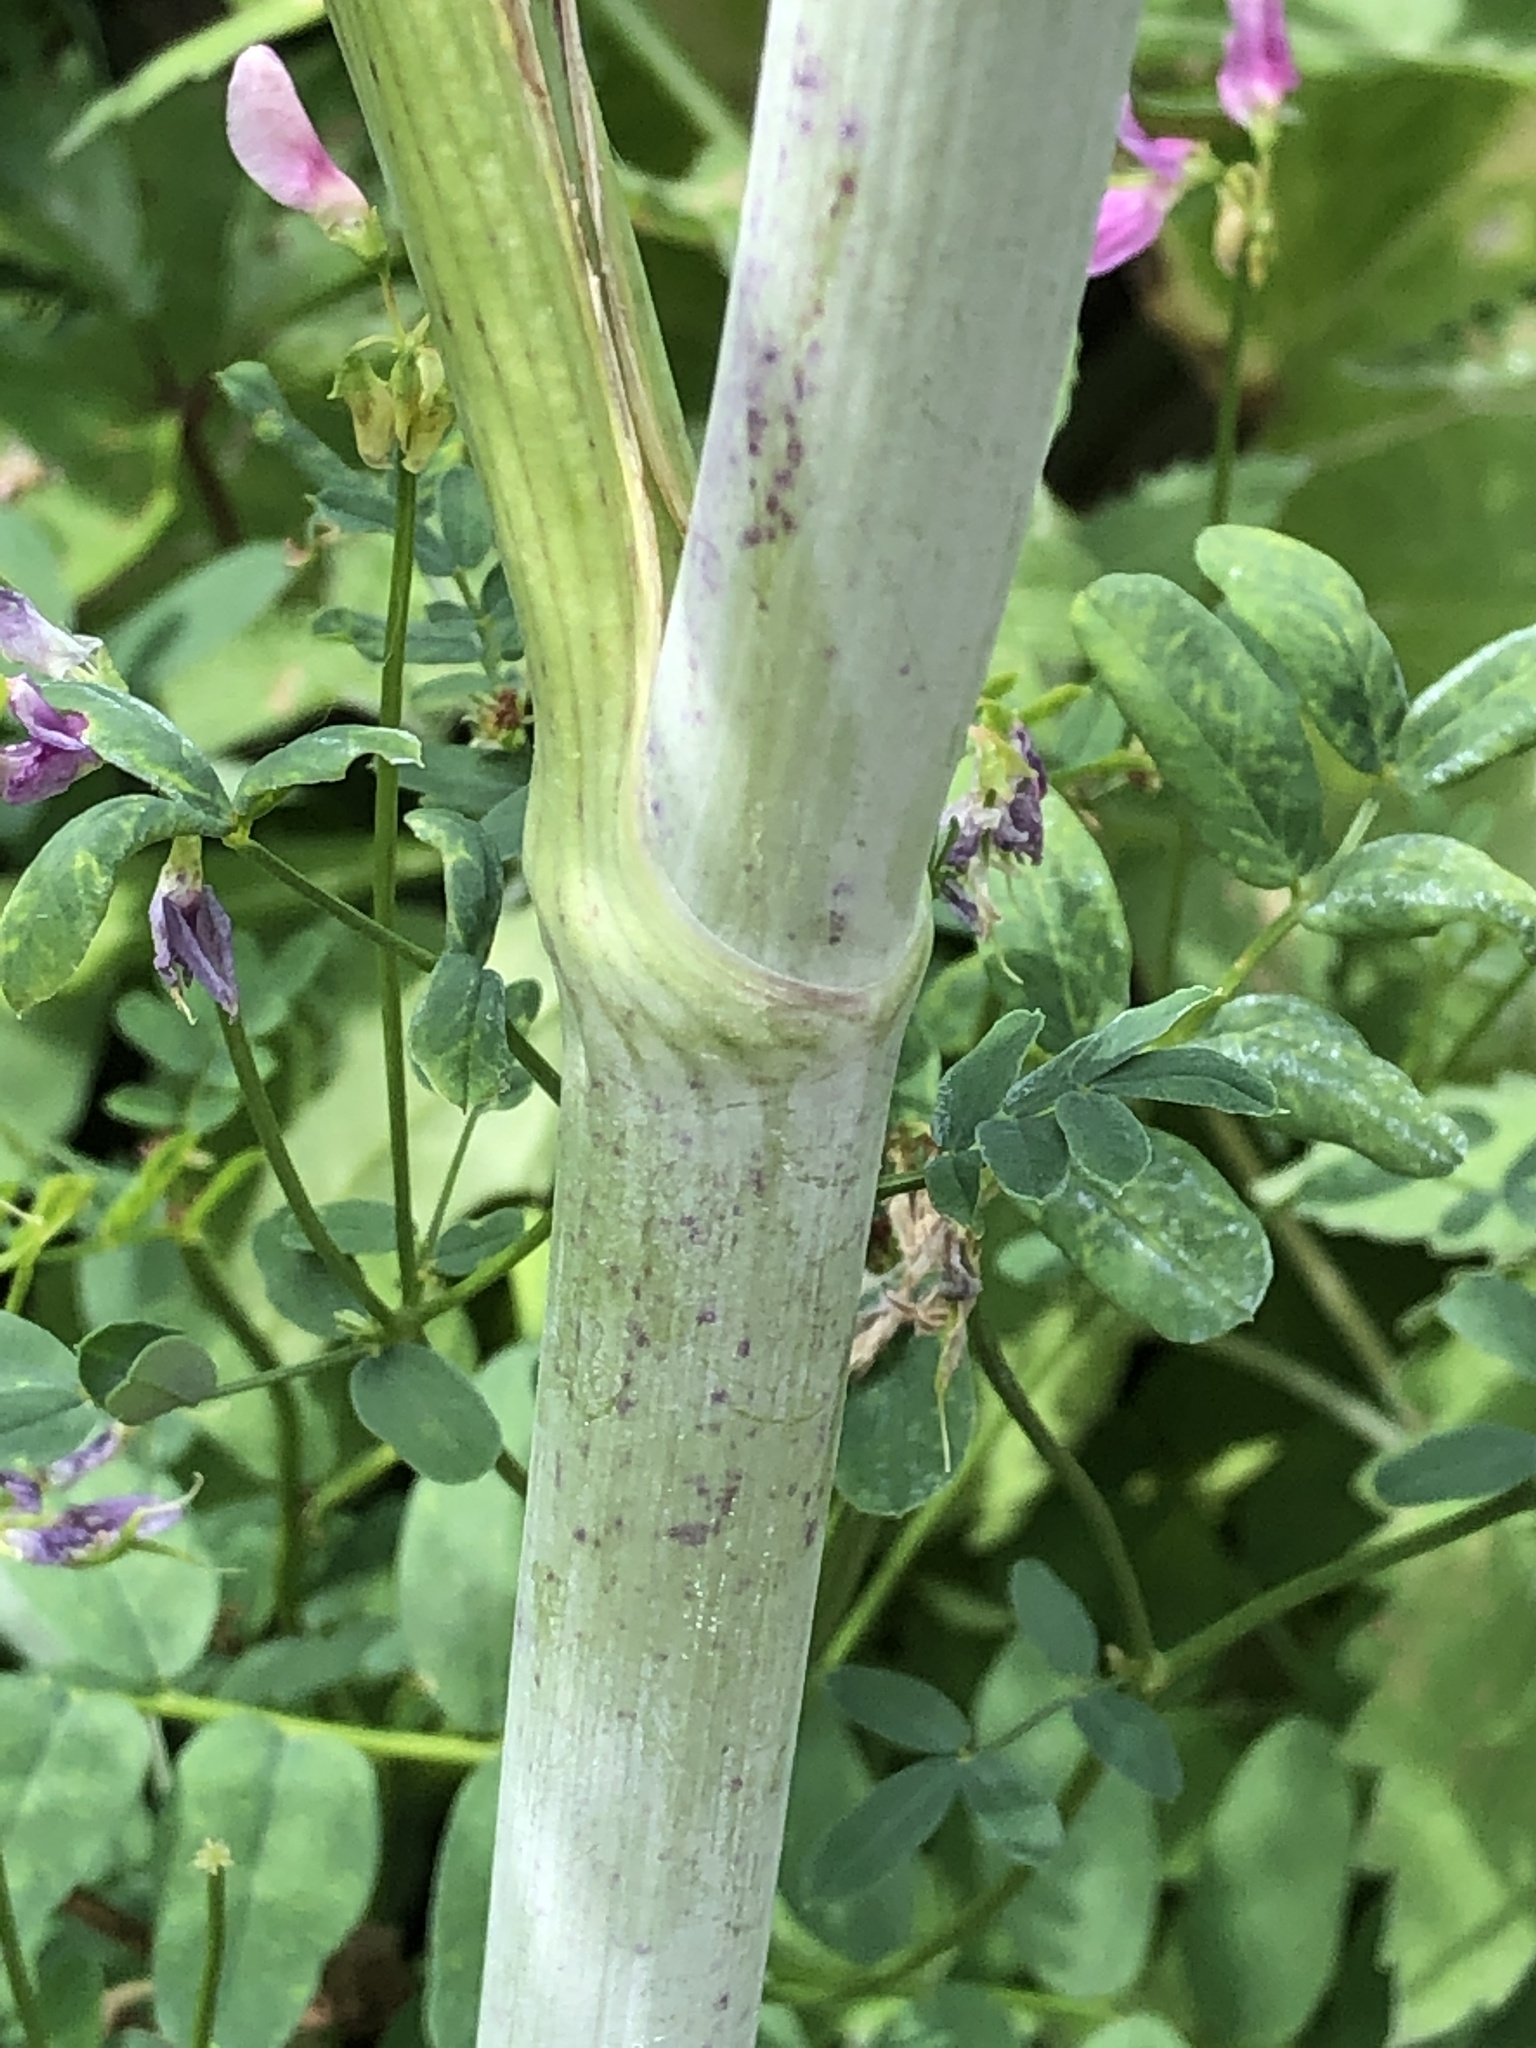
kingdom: Plantae
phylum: Tracheophyta
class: Magnoliopsida
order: Apiales
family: Apiaceae
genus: Conium
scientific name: Conium maculatum
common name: Hemlock
